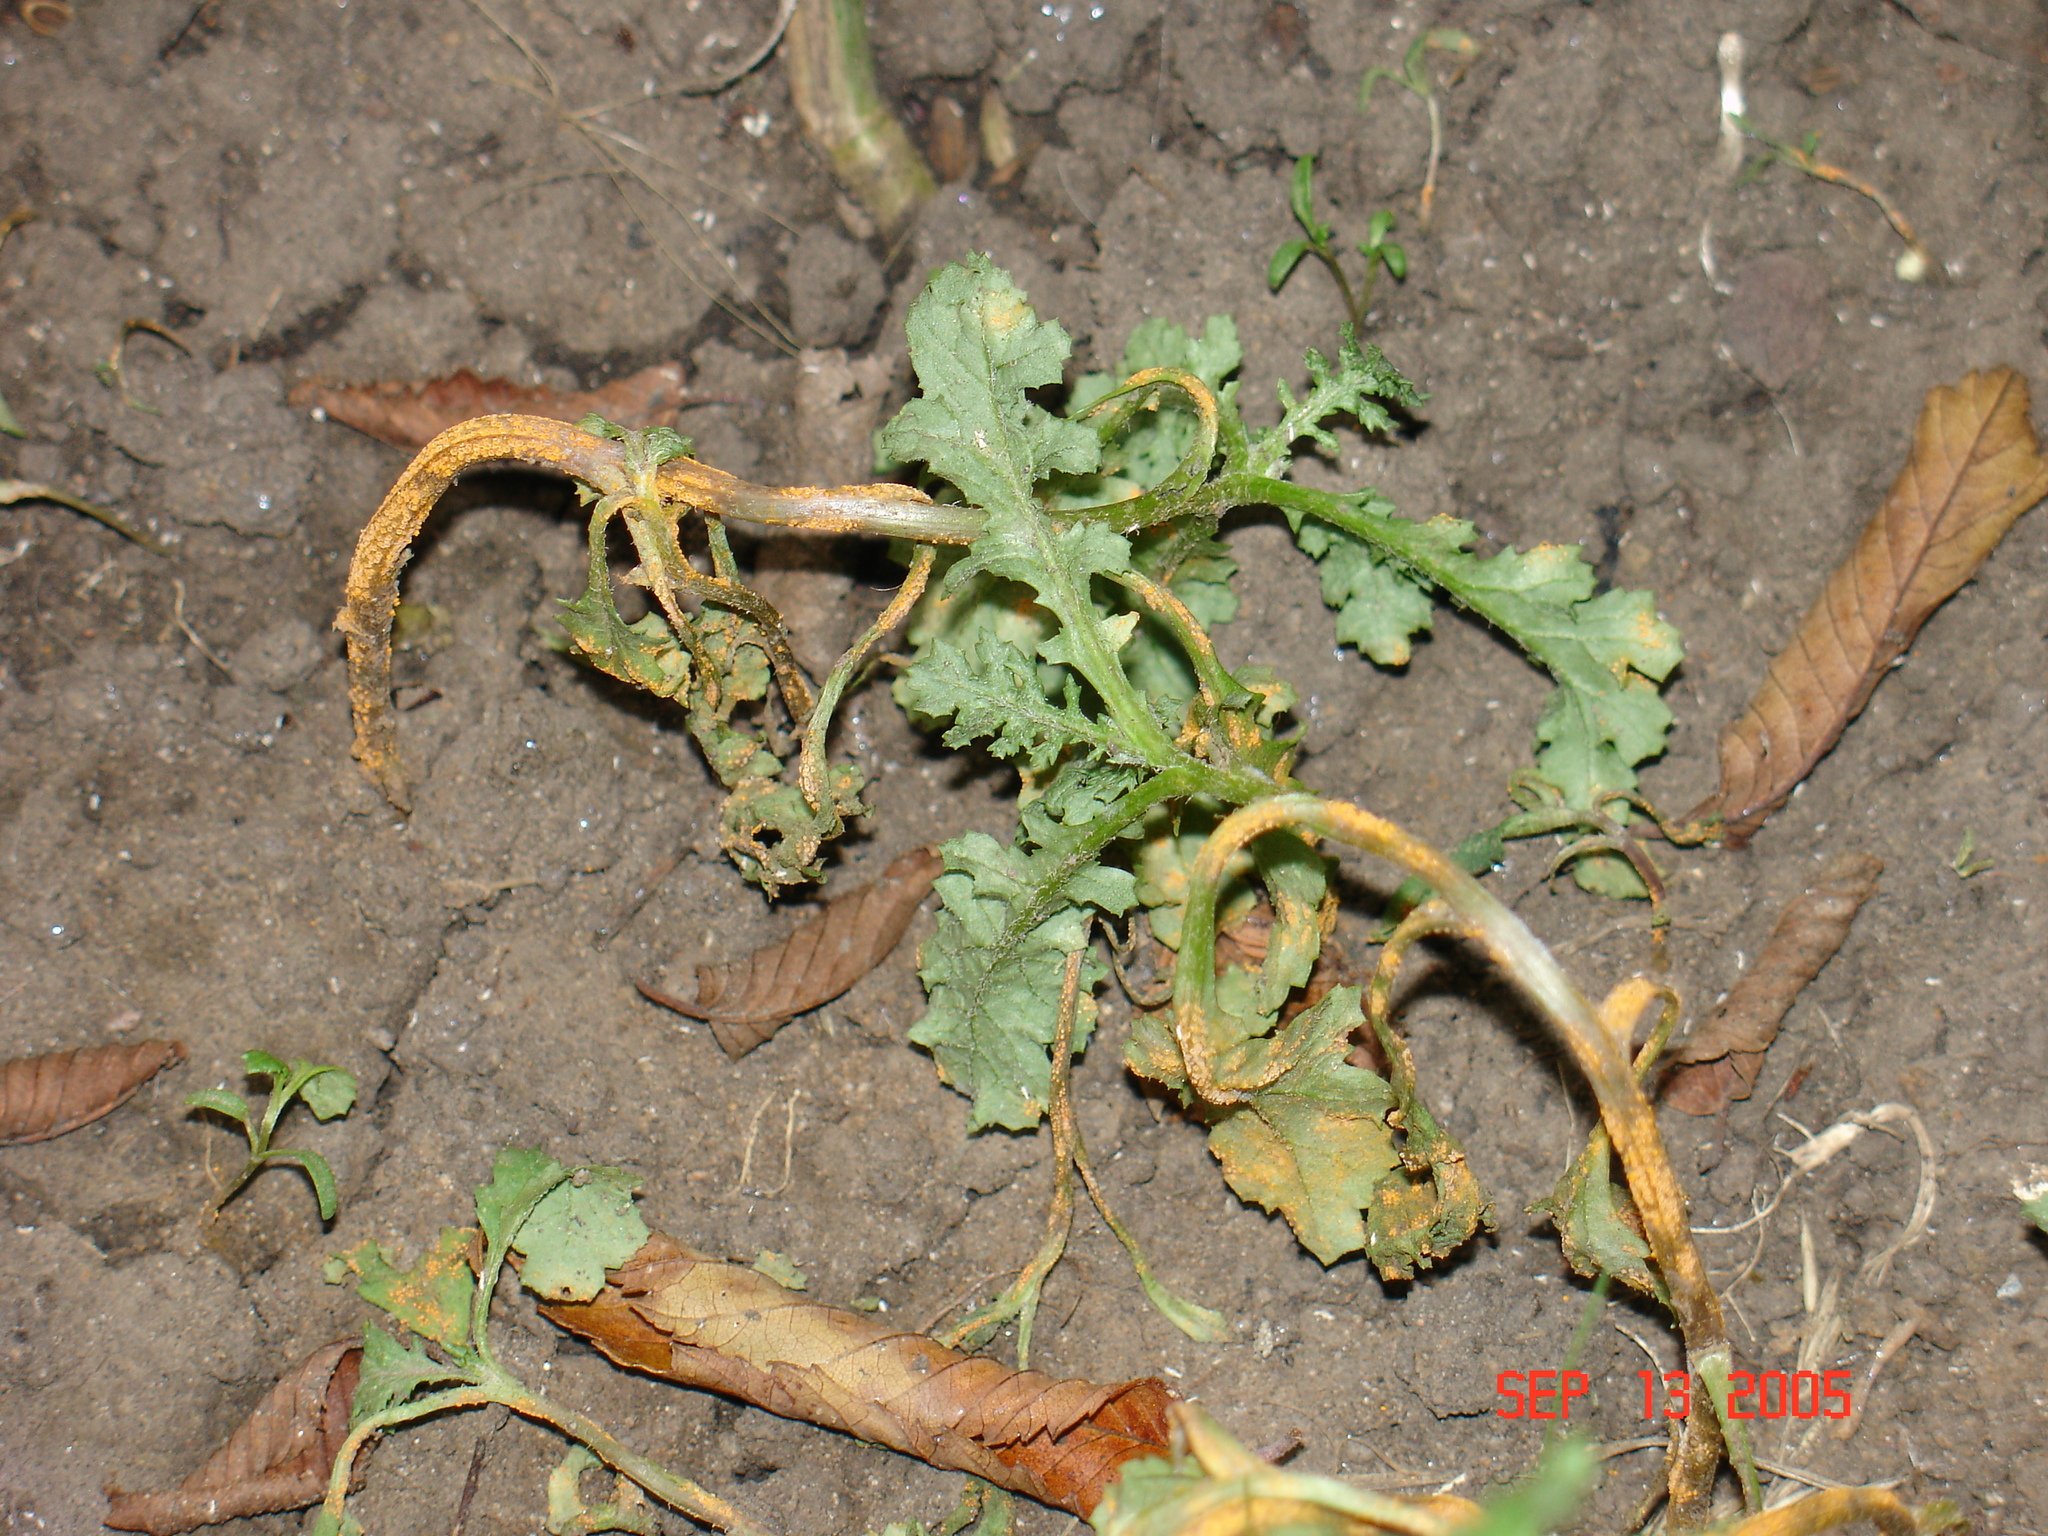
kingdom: Fungi
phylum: Basidiomycota
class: Pucciniomycetes
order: Pucciniales
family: Pucciniaceae
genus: Puccinia
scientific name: Puccinia lagenophorae
